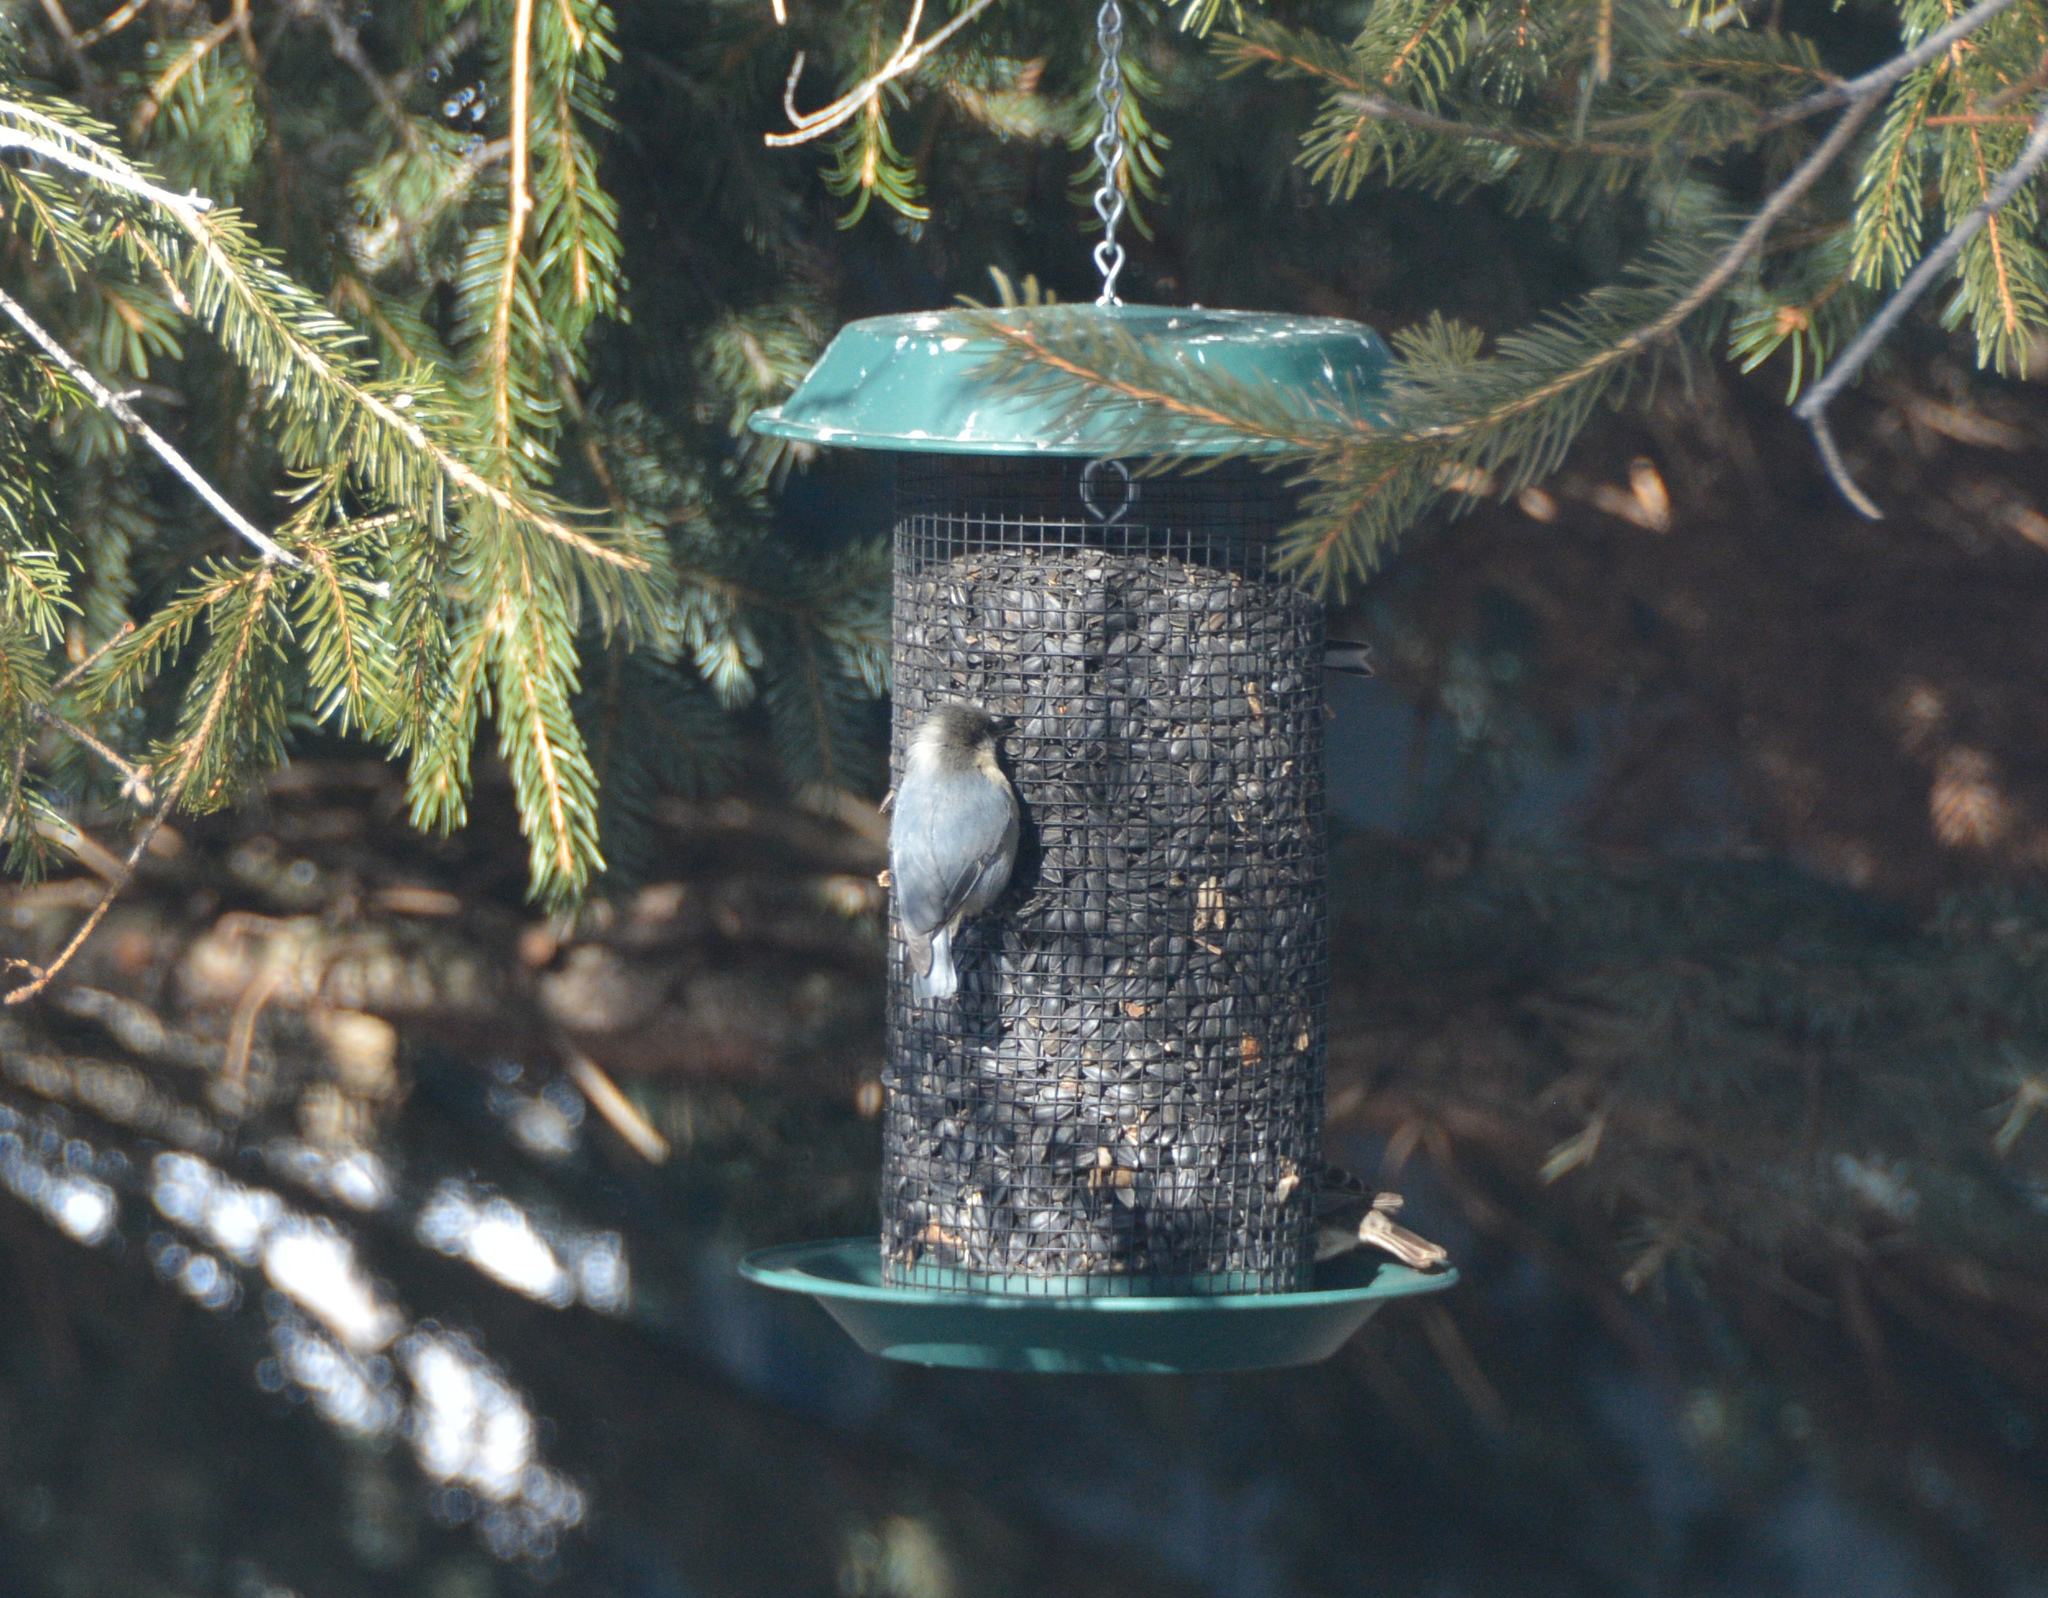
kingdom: Animalia
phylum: Chordata
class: Aves
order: Passeriformes
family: Sittidae
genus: Sitta
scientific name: Sitta pygmaea
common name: Pygmy nuthatch
